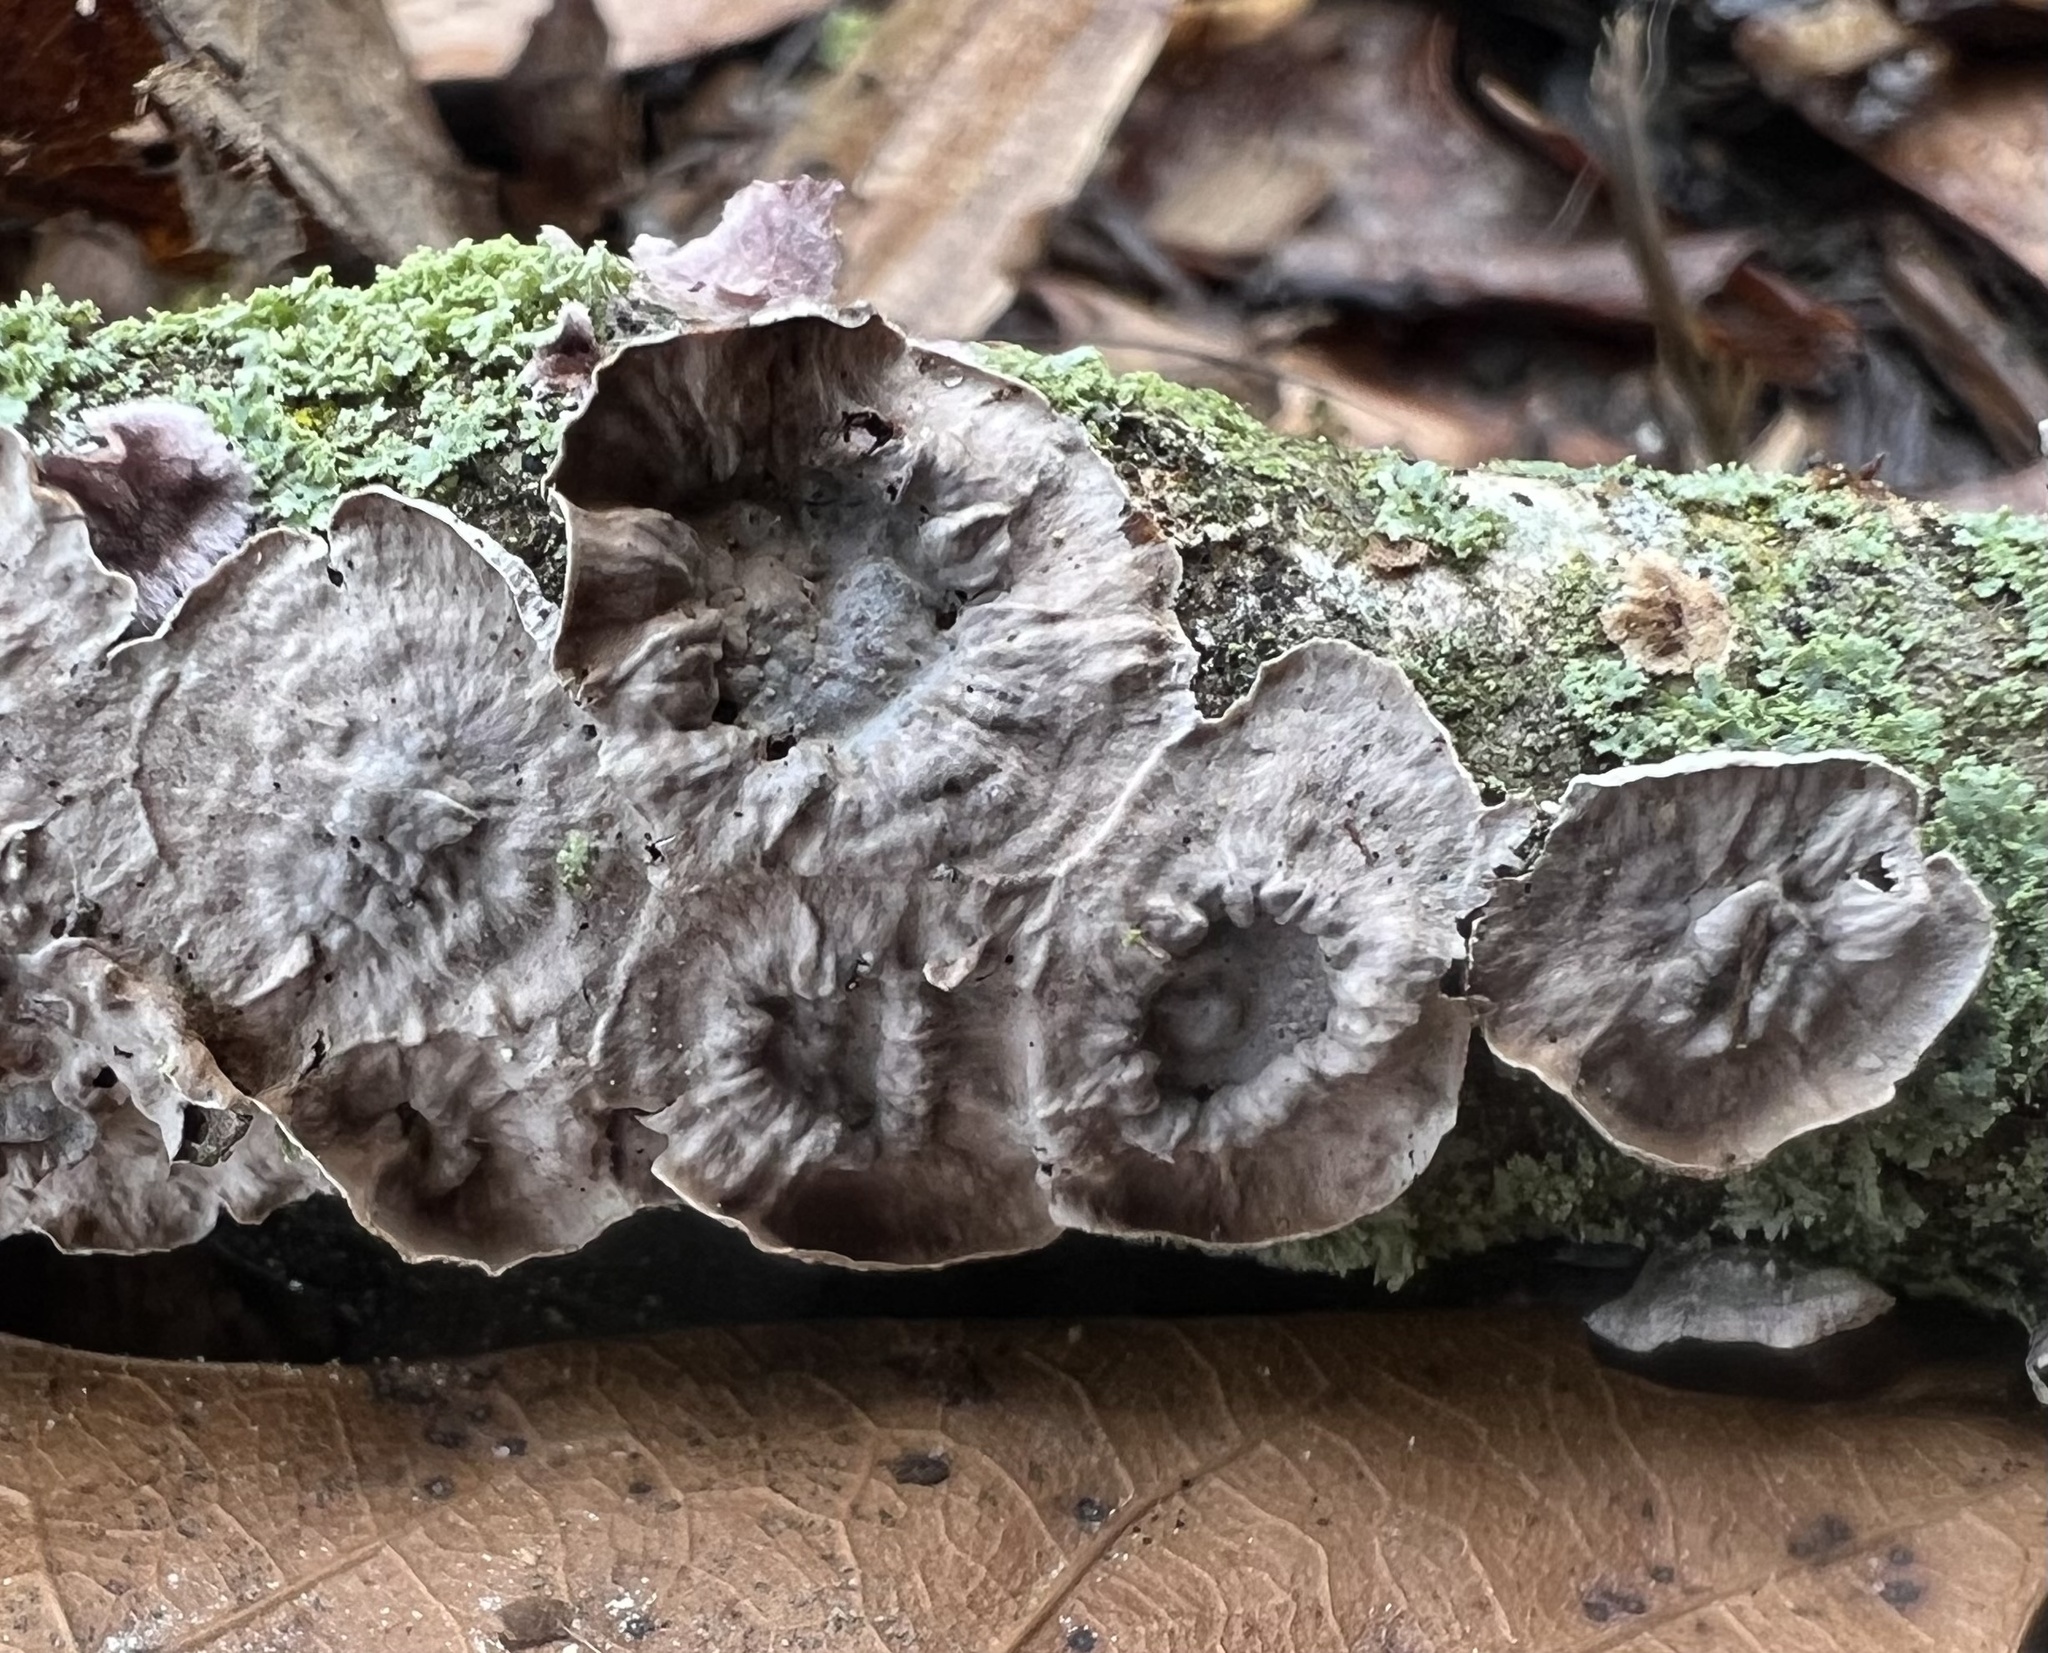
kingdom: Fungi
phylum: Basidiomycota
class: Agaricomycetes
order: Polyporales
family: Phanerochaetaceae
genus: Phlebiopsis
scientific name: Phlebiopsis crassa
